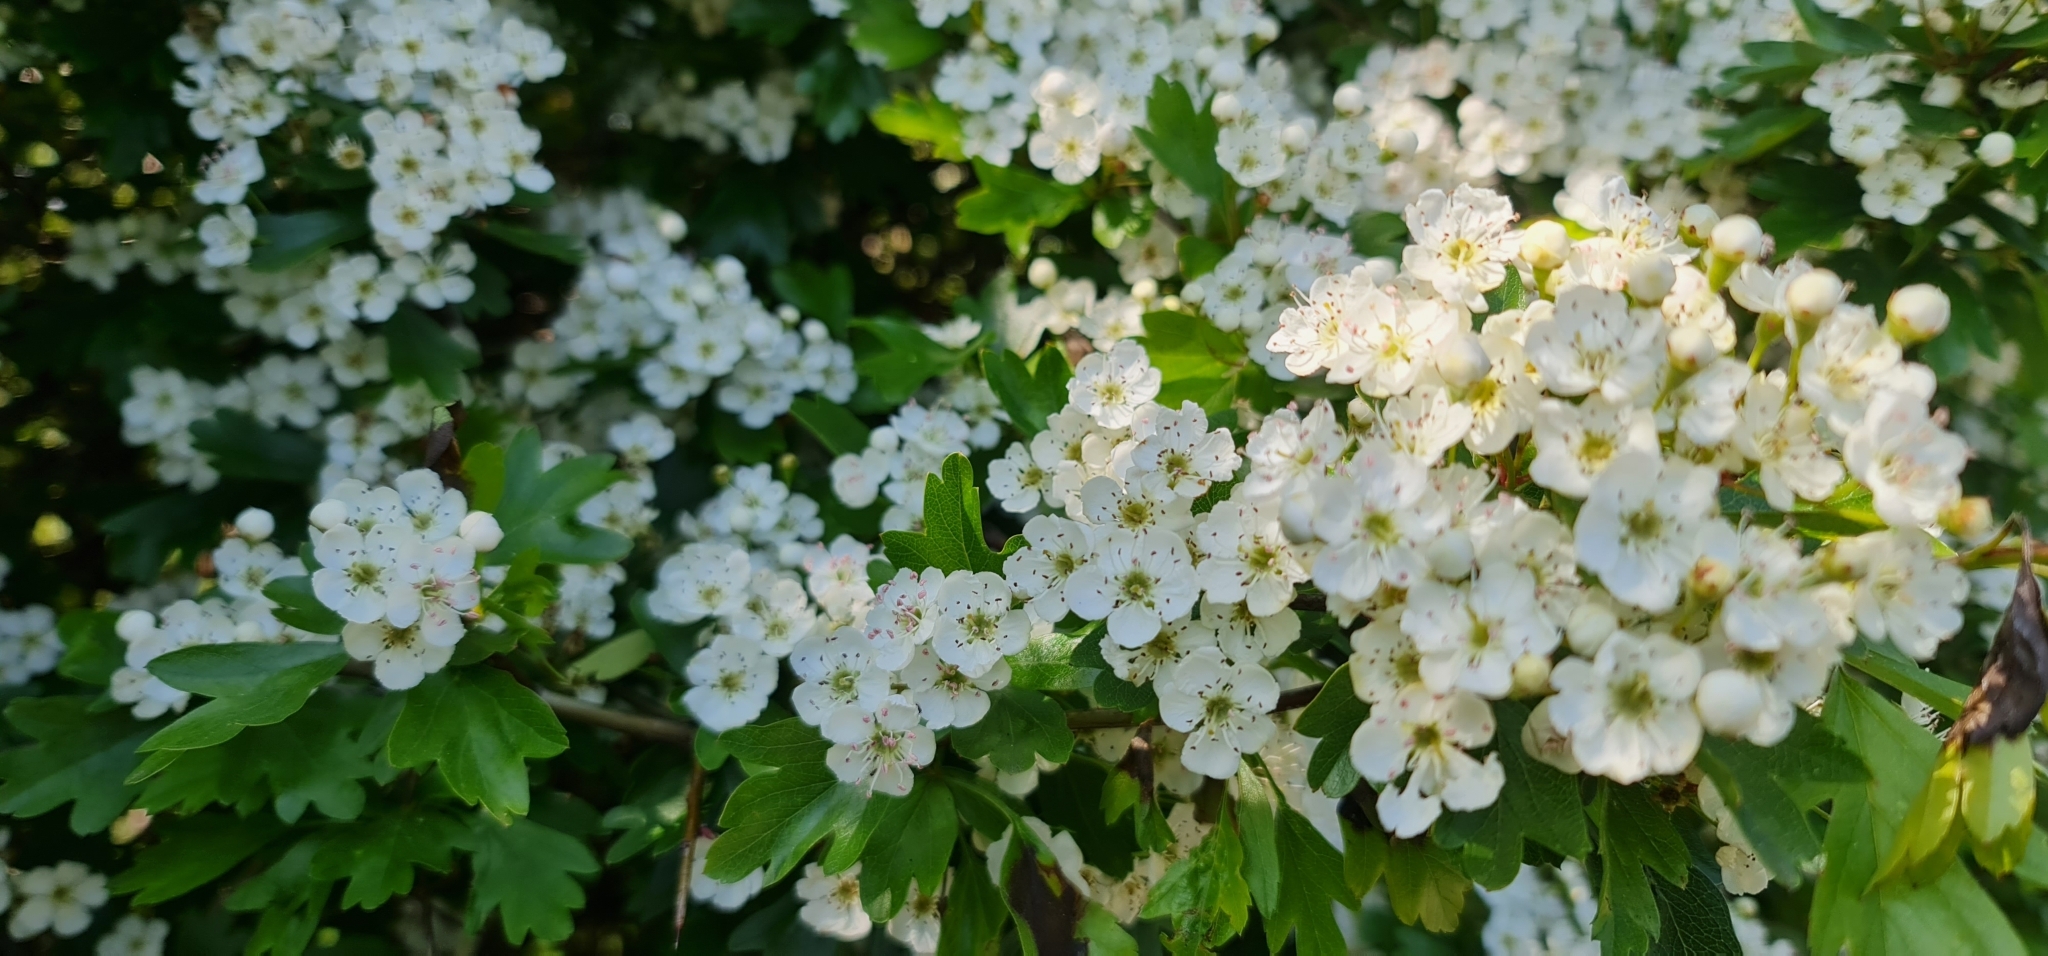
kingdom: Plantae
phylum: Tracheophyta
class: Magnoliopsida
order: Rosales
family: Rosaceae
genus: Crataegus
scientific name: Crataegus monogyna
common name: Hawthorn
